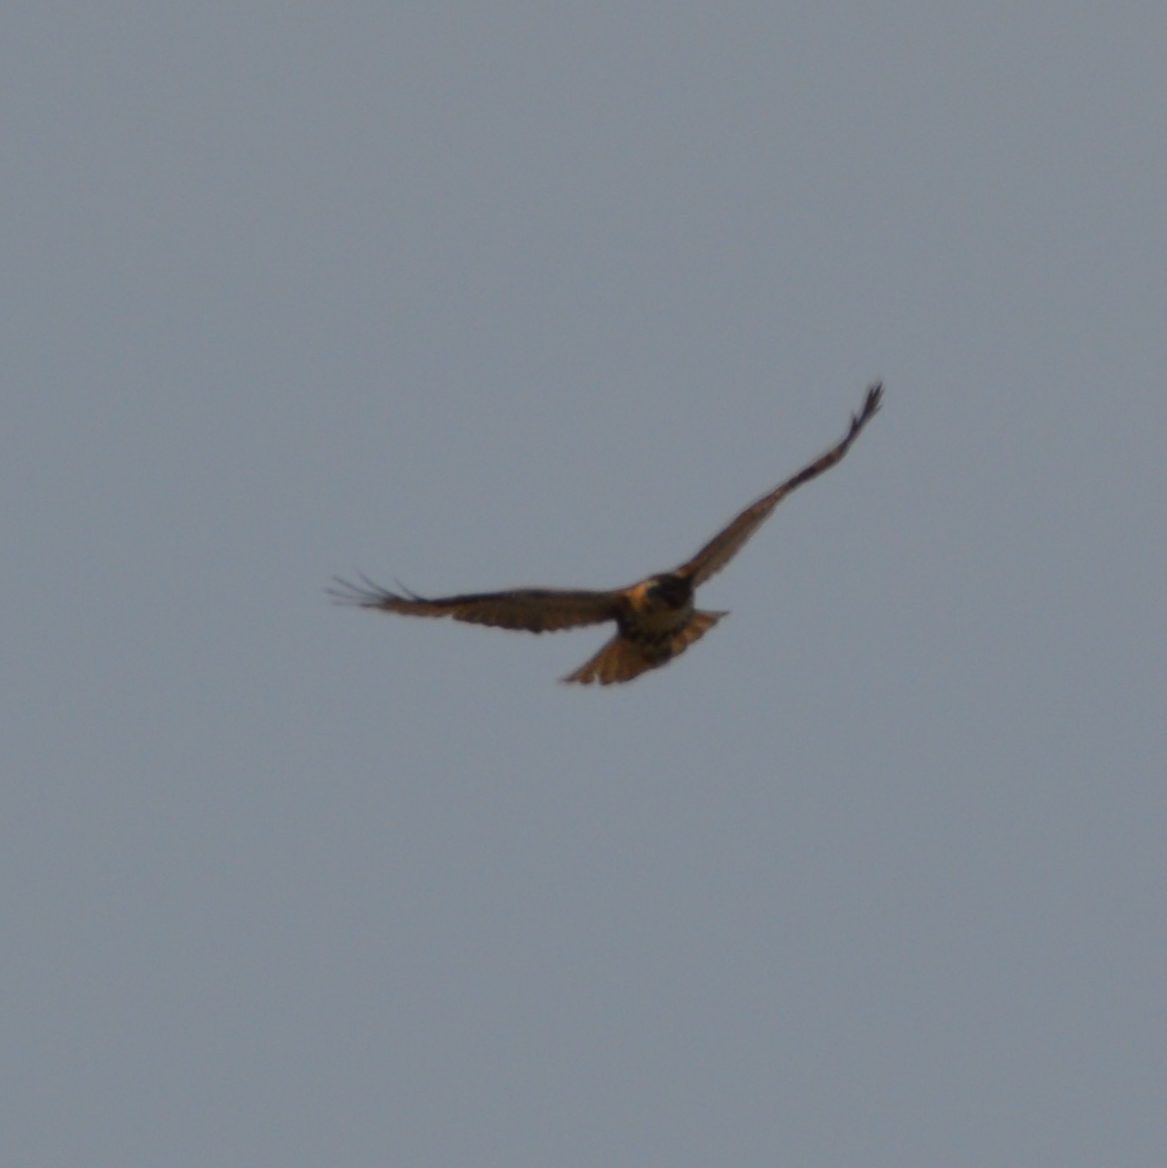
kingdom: Animalia
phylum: Chordata
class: Aves
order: Accipitriformes
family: Accipitridae
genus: Buteo
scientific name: Buteo jamaicensis
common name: Red-tailed hawk
